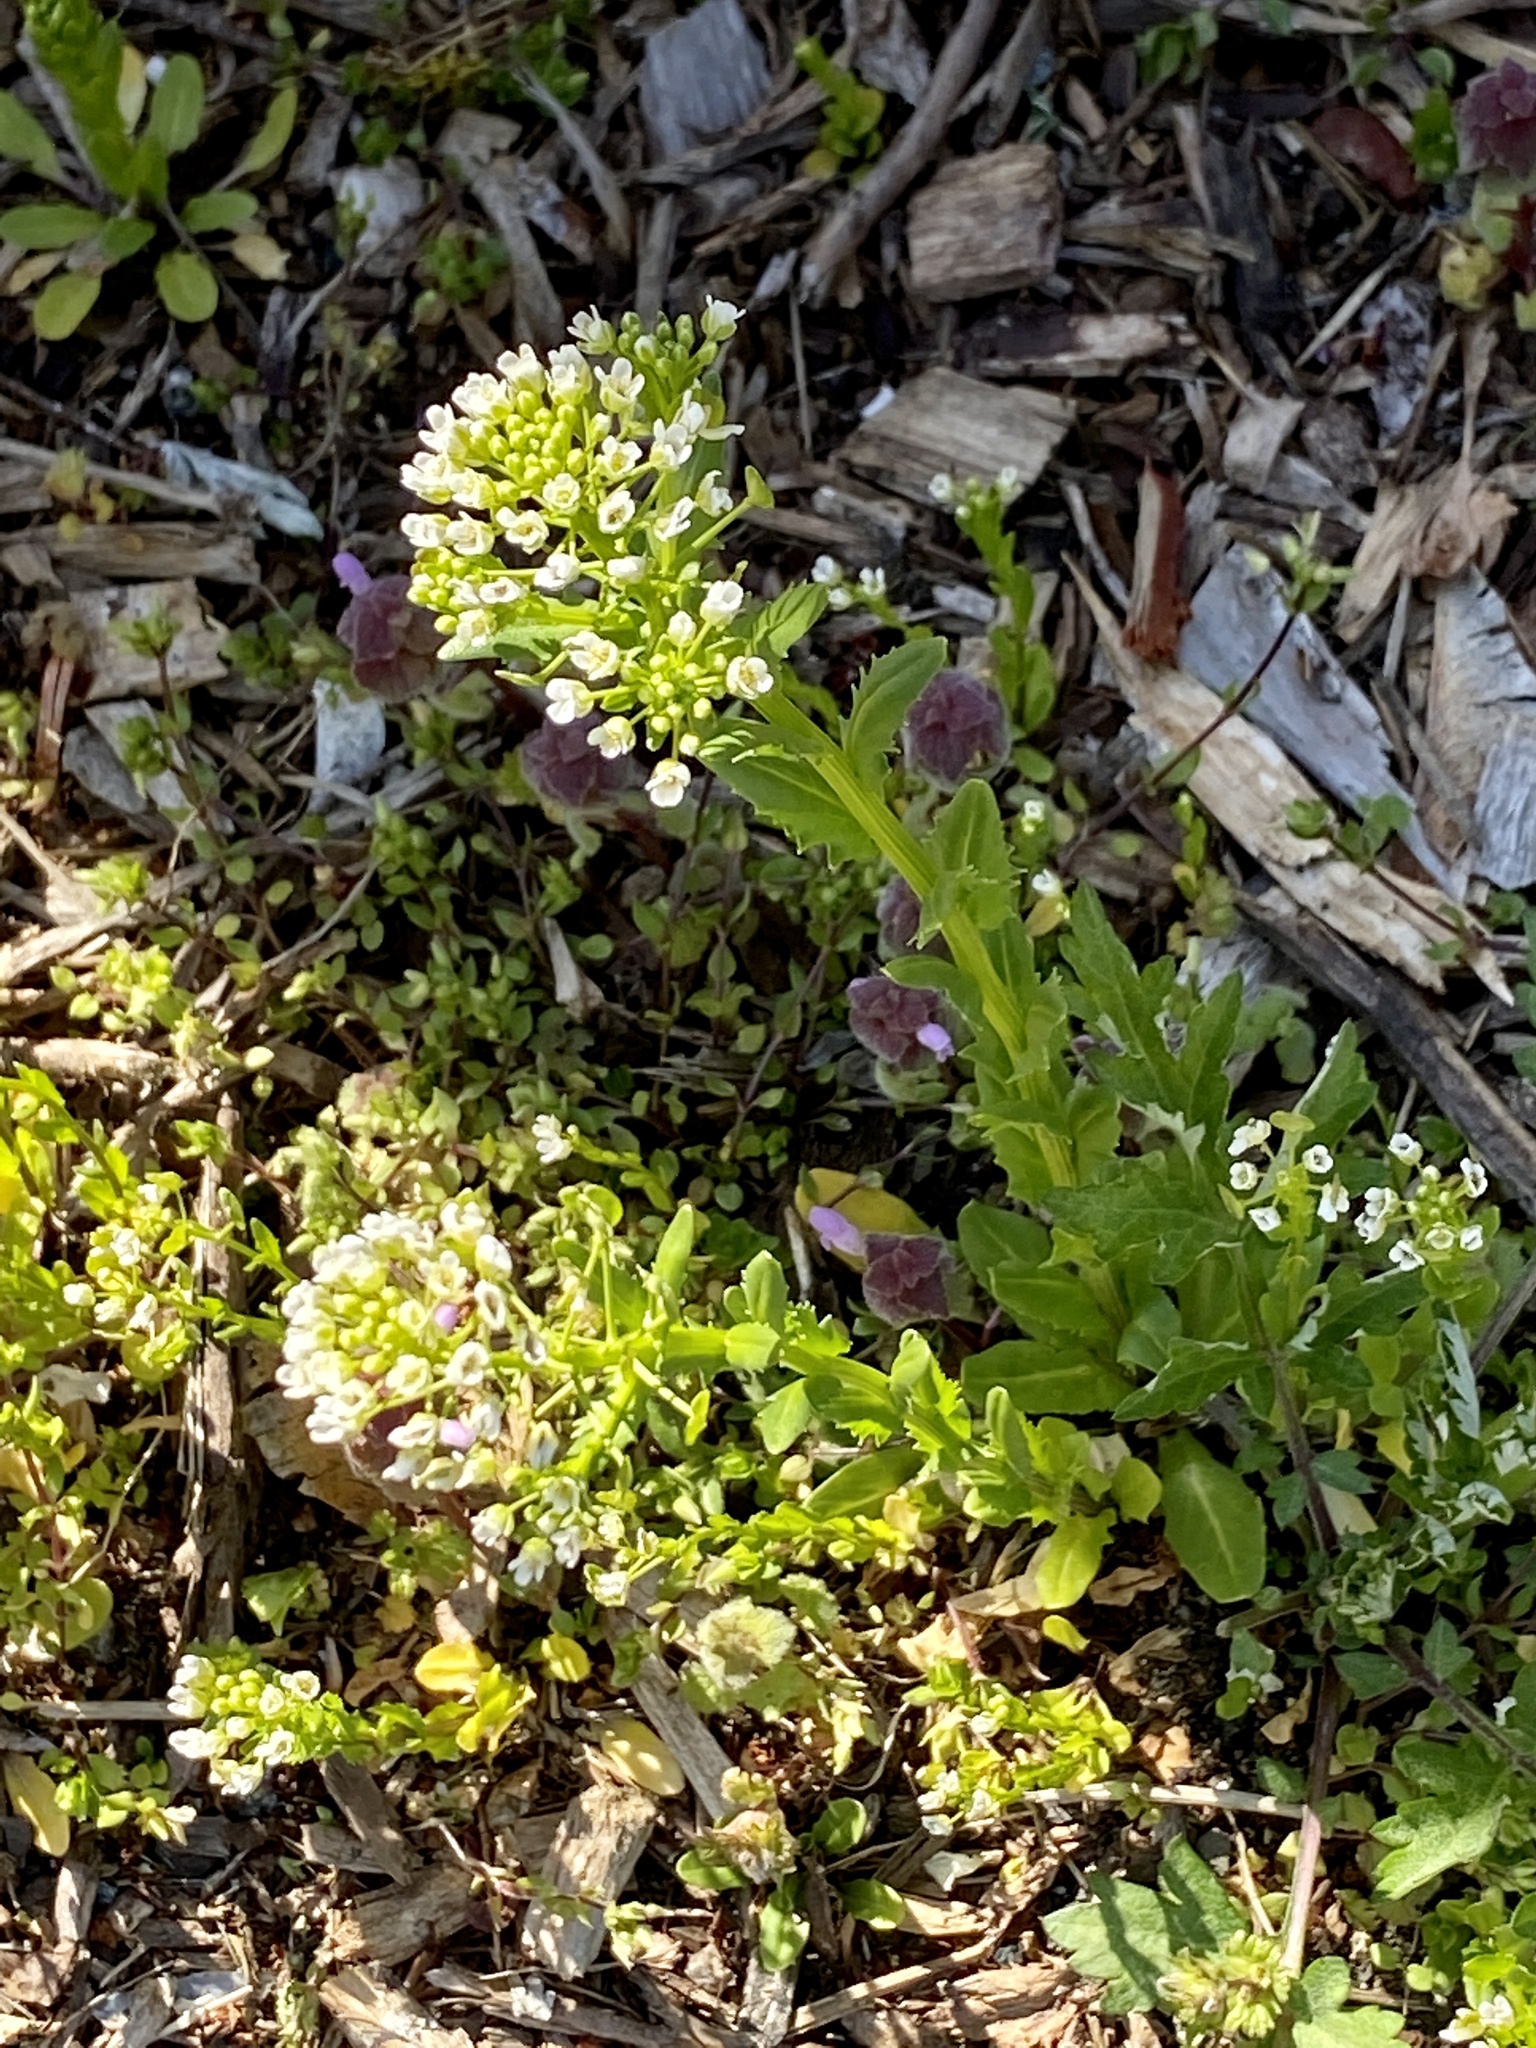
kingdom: Plantae
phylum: Tracheophyta
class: Magnoliopsida
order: Brassicales
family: Brassicaceae
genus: Thlaspi
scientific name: Thlaspi arvense
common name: Field pennycress
